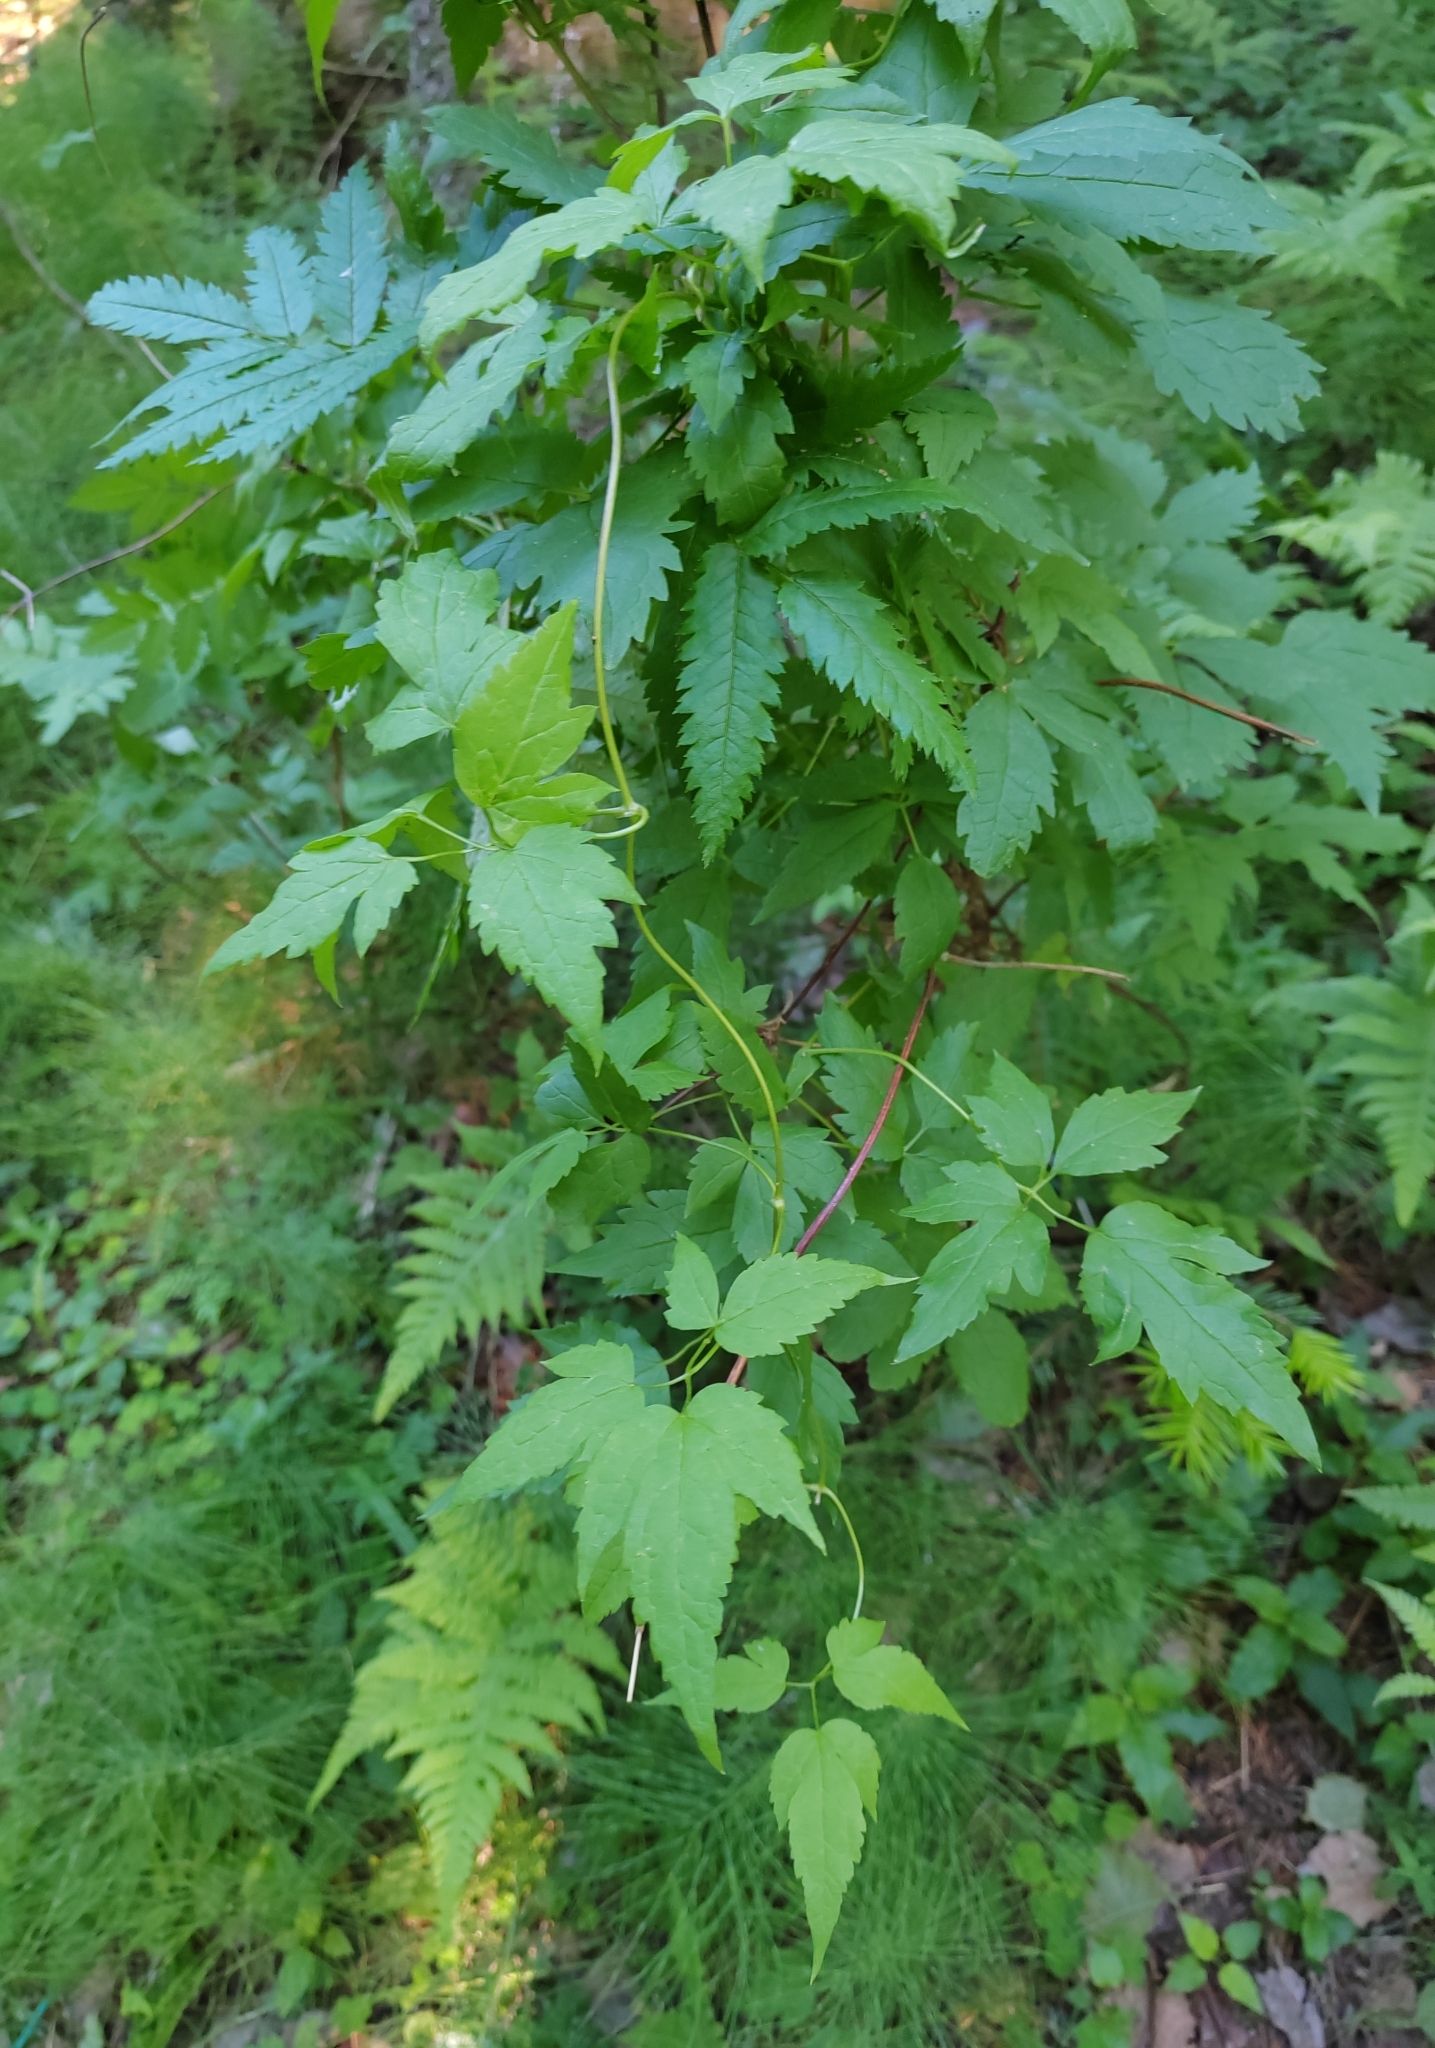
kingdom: Plantae
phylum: Tracheophyta
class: Magnoliopsida
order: Ranunculales
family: Ranunculaceae
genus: Clematis
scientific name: Clematis sibirica
